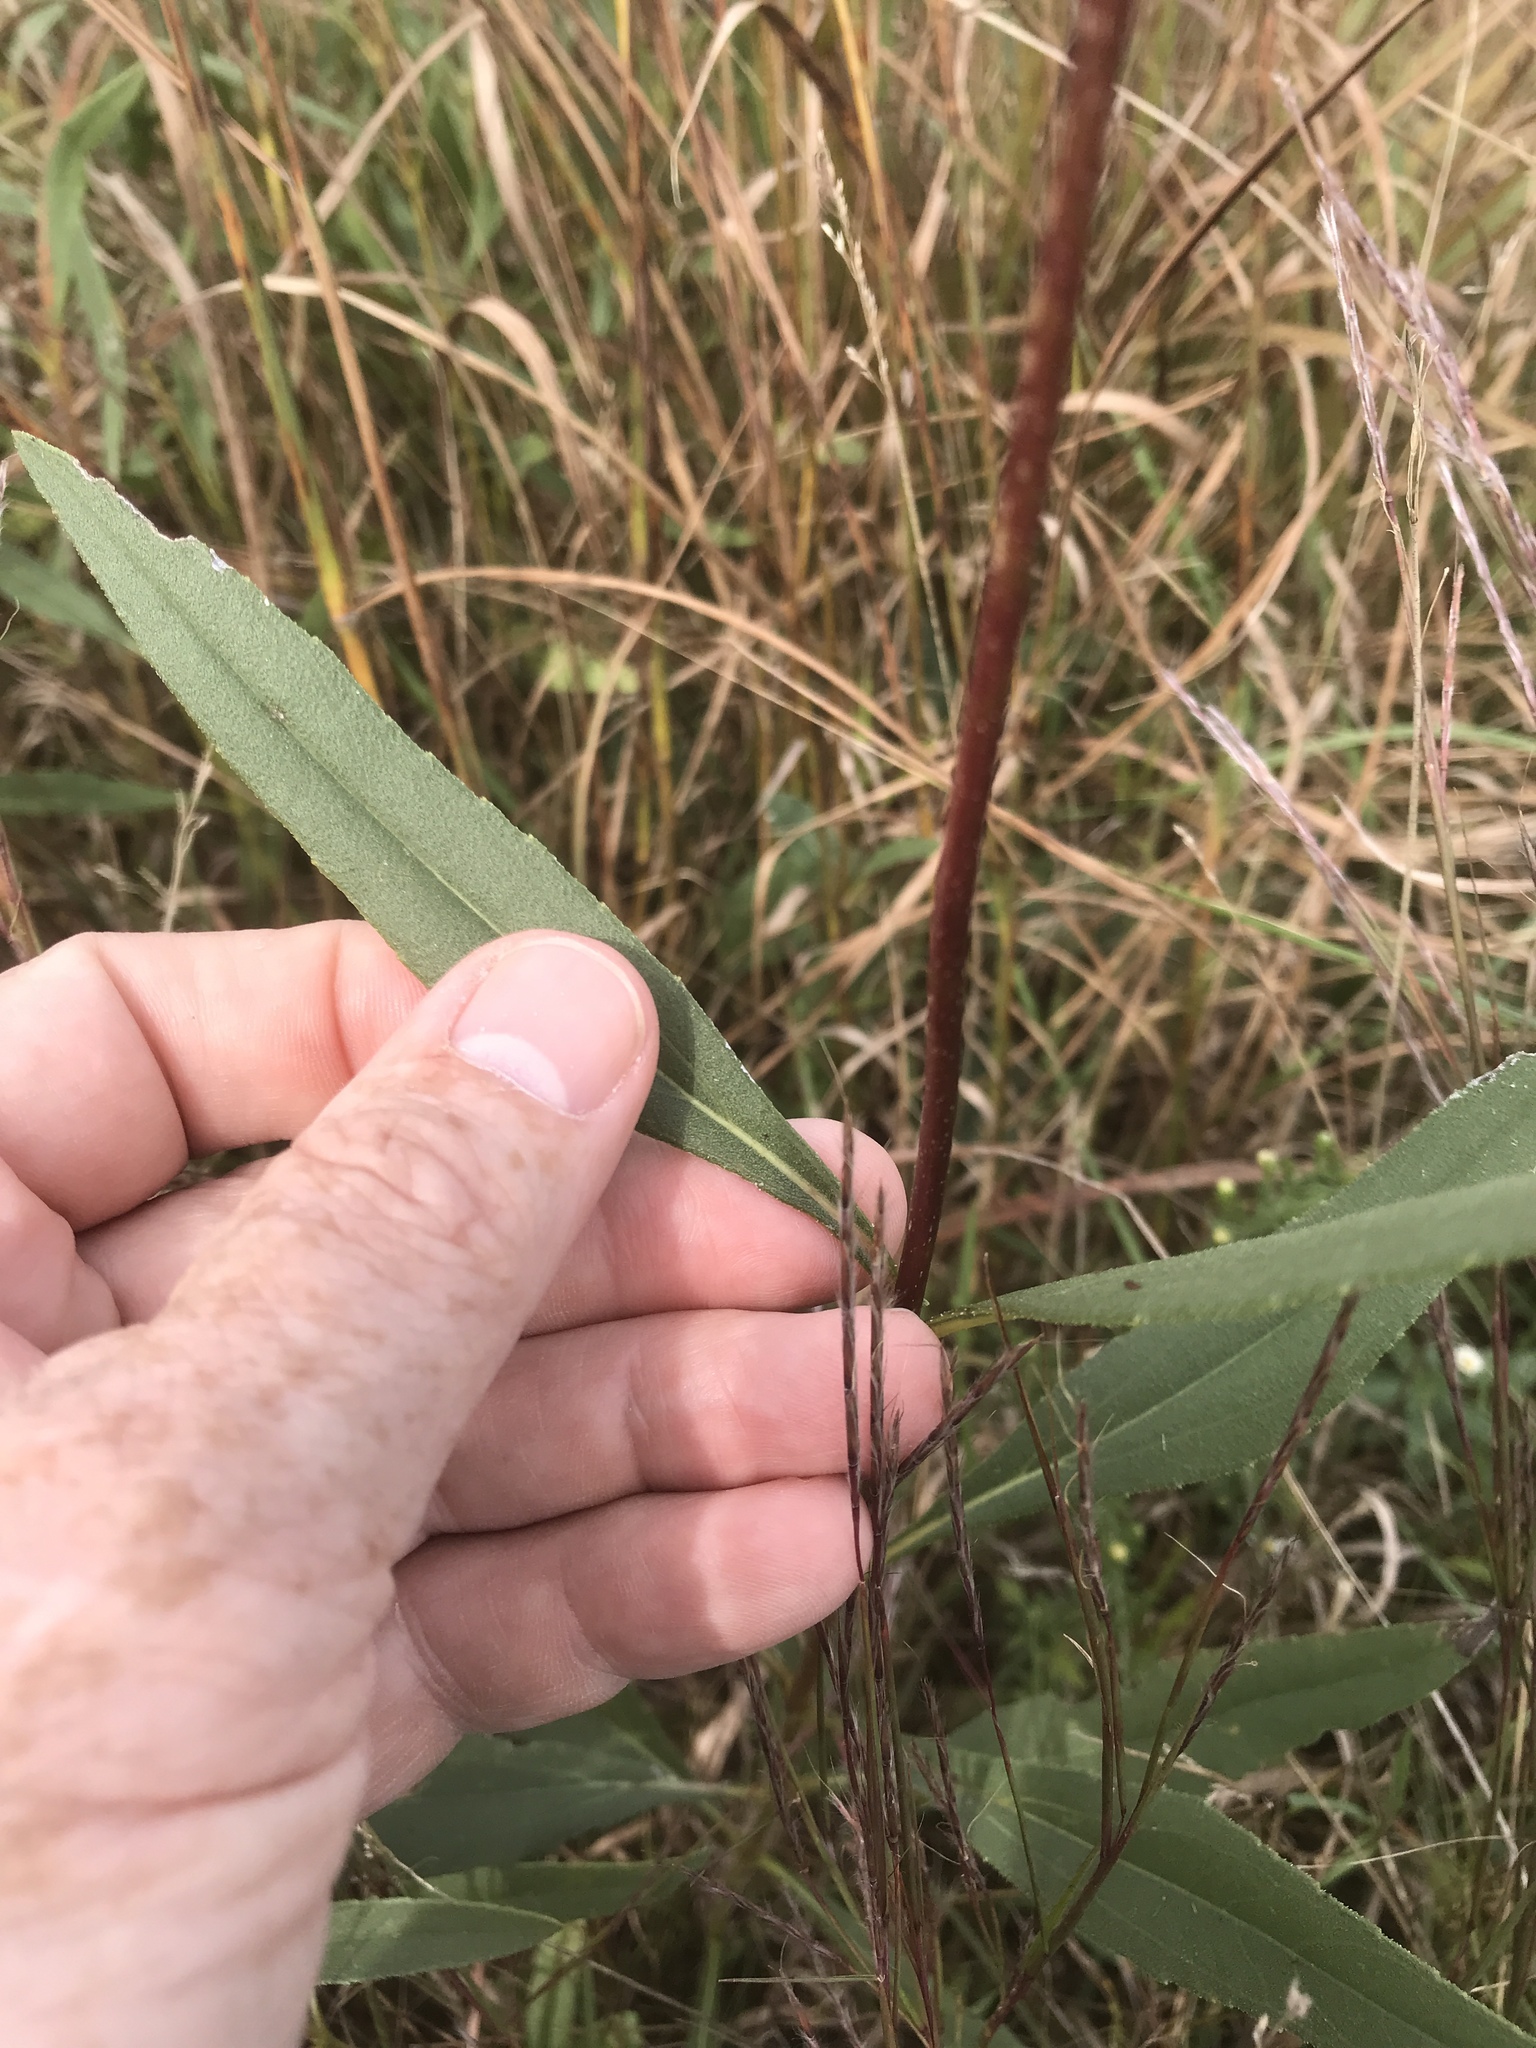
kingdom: Plantae
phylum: Tracheophyta
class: Magnoliopsida
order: Asterales
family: Asteraceae
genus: Helianthus
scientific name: Helianthus pauciflorus
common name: Stiff sunflower
